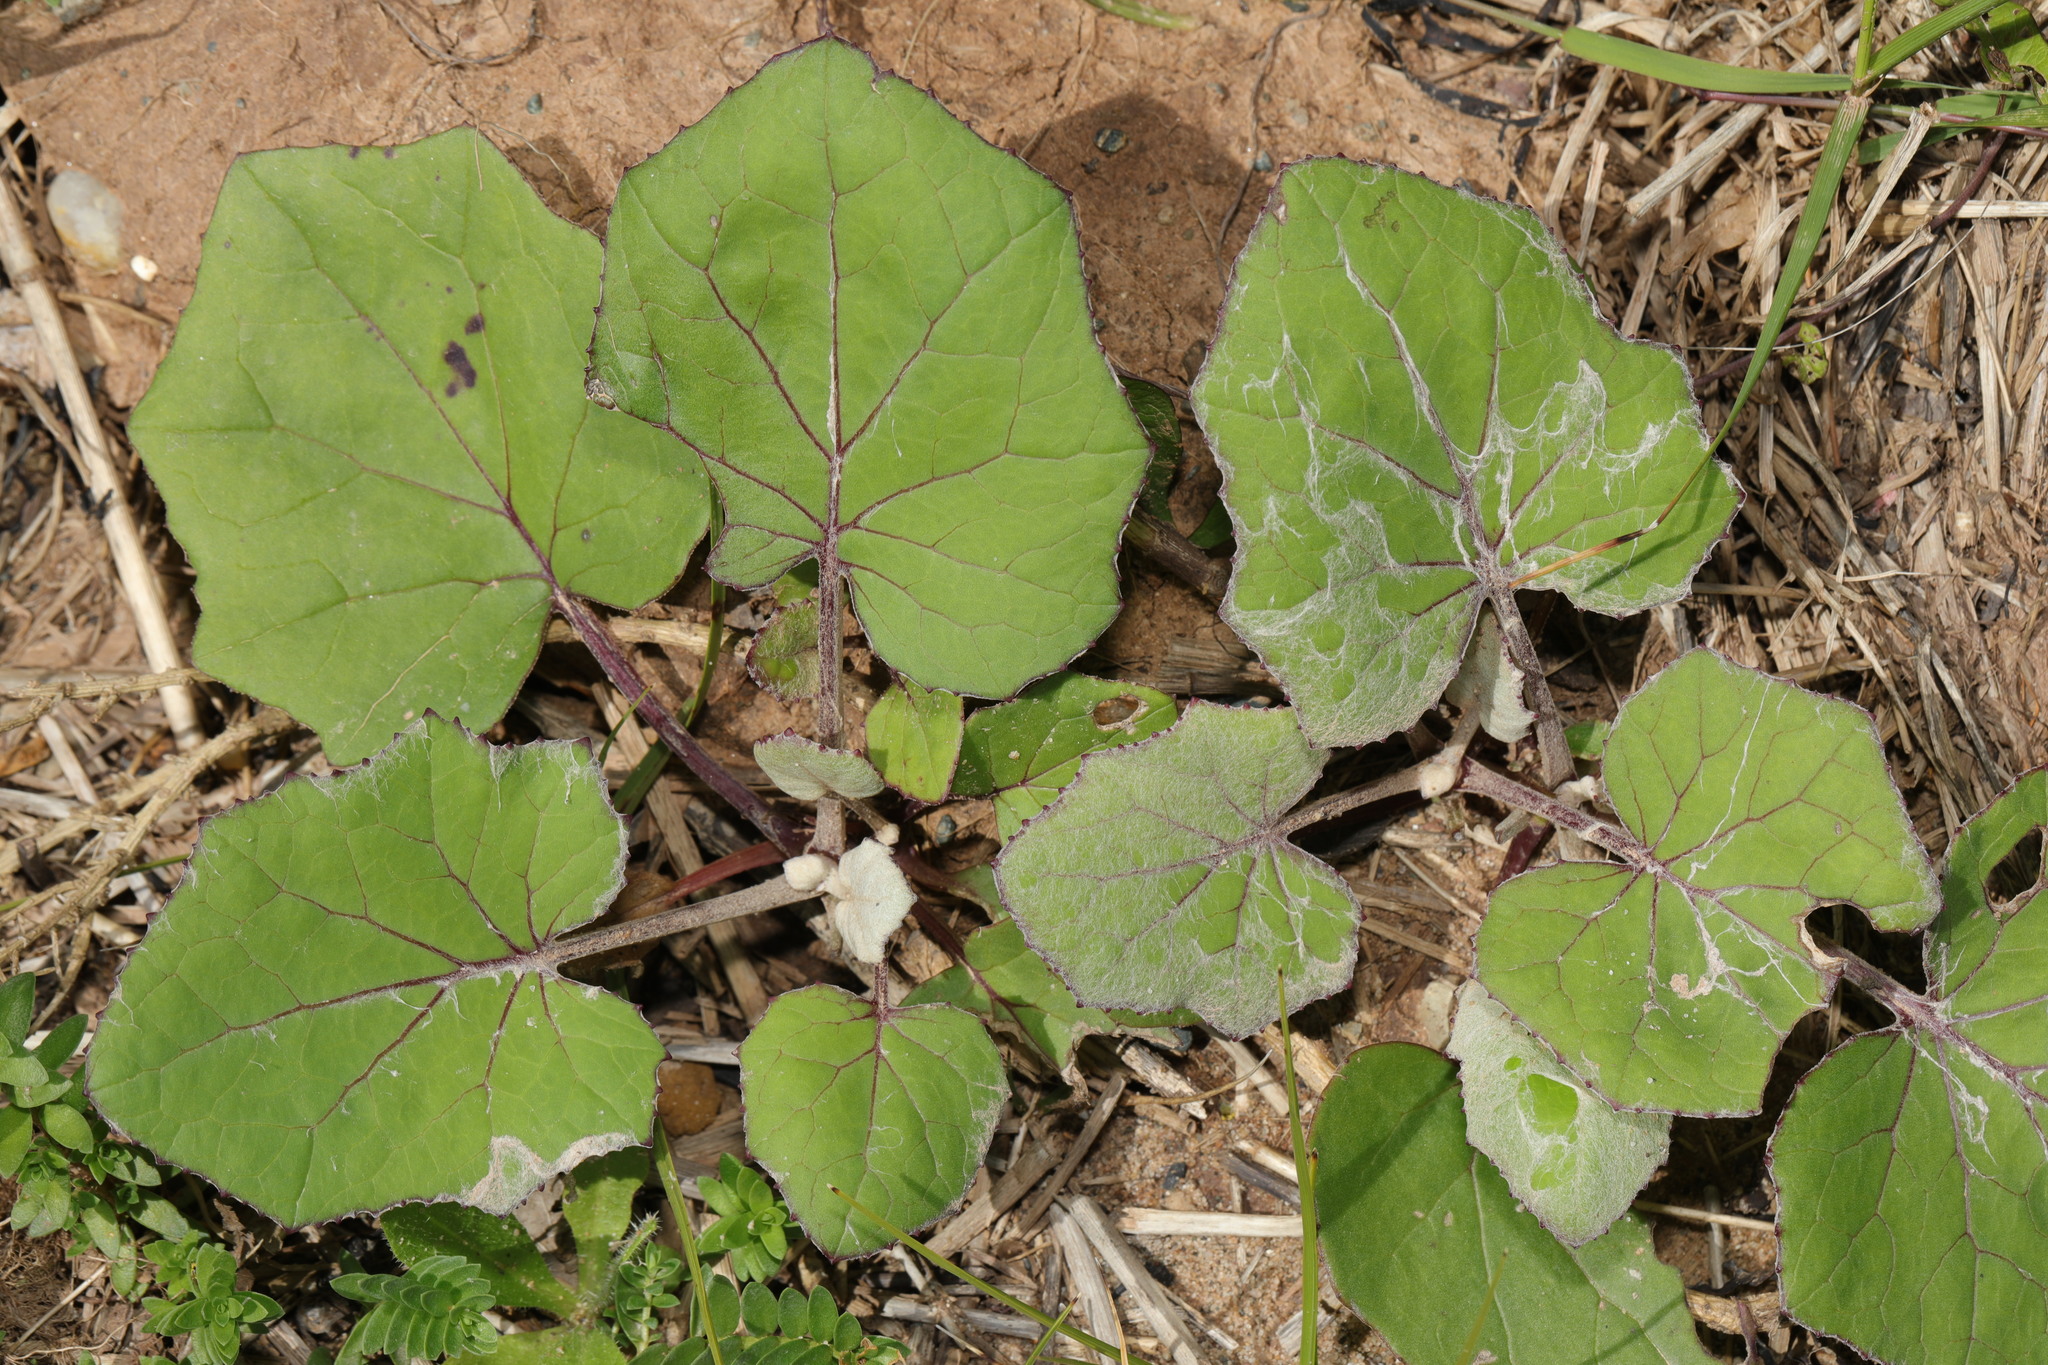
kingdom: Plantae
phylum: Tracheophyta
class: Magnoliopsida
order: Asterales
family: Asteraceae
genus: Tussilago
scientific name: Tussilago farfara
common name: Coltsfoot
